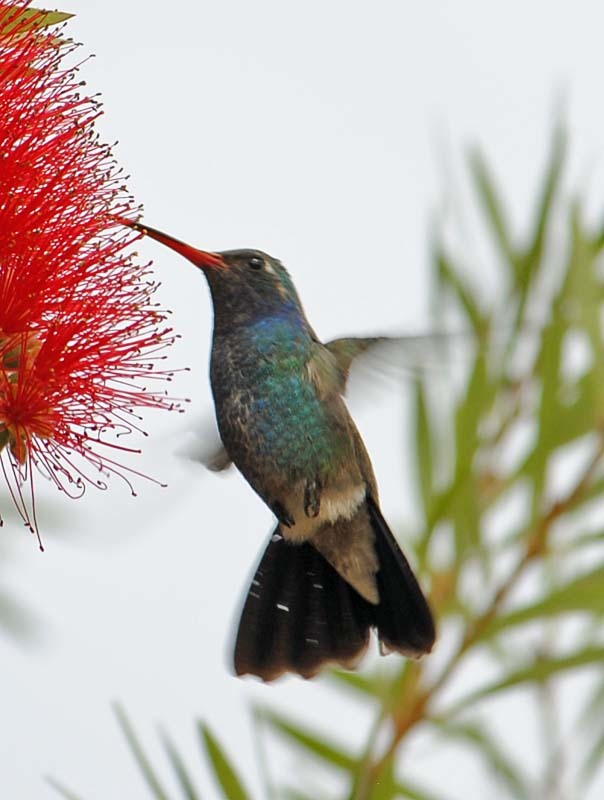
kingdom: Animalia
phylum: Chordata
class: Aves
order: Apodiformes
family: Trochilidae
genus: Cynanthus
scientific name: Cynanthus latirostris
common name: Broad-billed hummingbird
